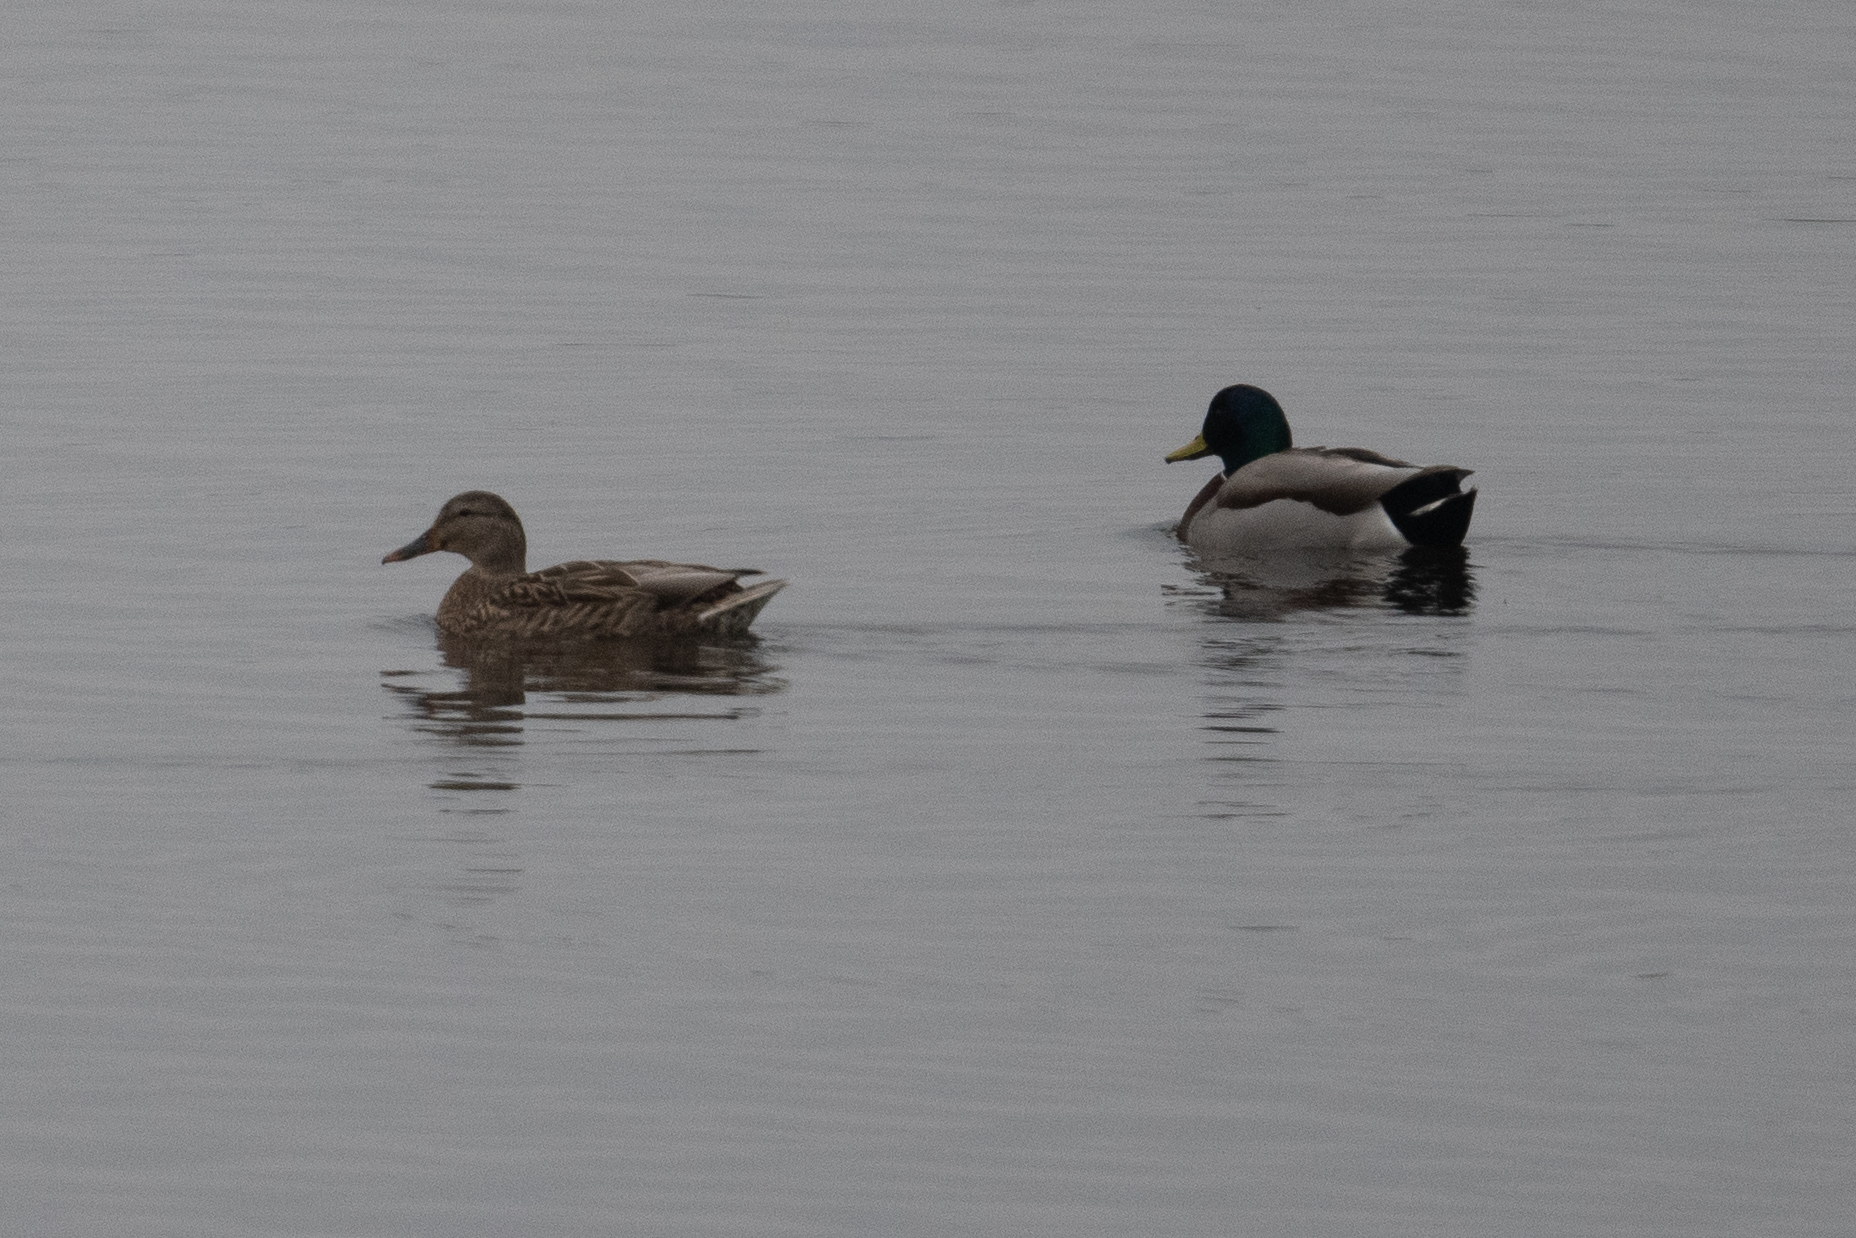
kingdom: Animalia
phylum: Chordata
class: Aves
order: Anseriformes
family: Anatidae
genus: Anas
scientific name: Anas platyrhynchos
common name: Mallard
